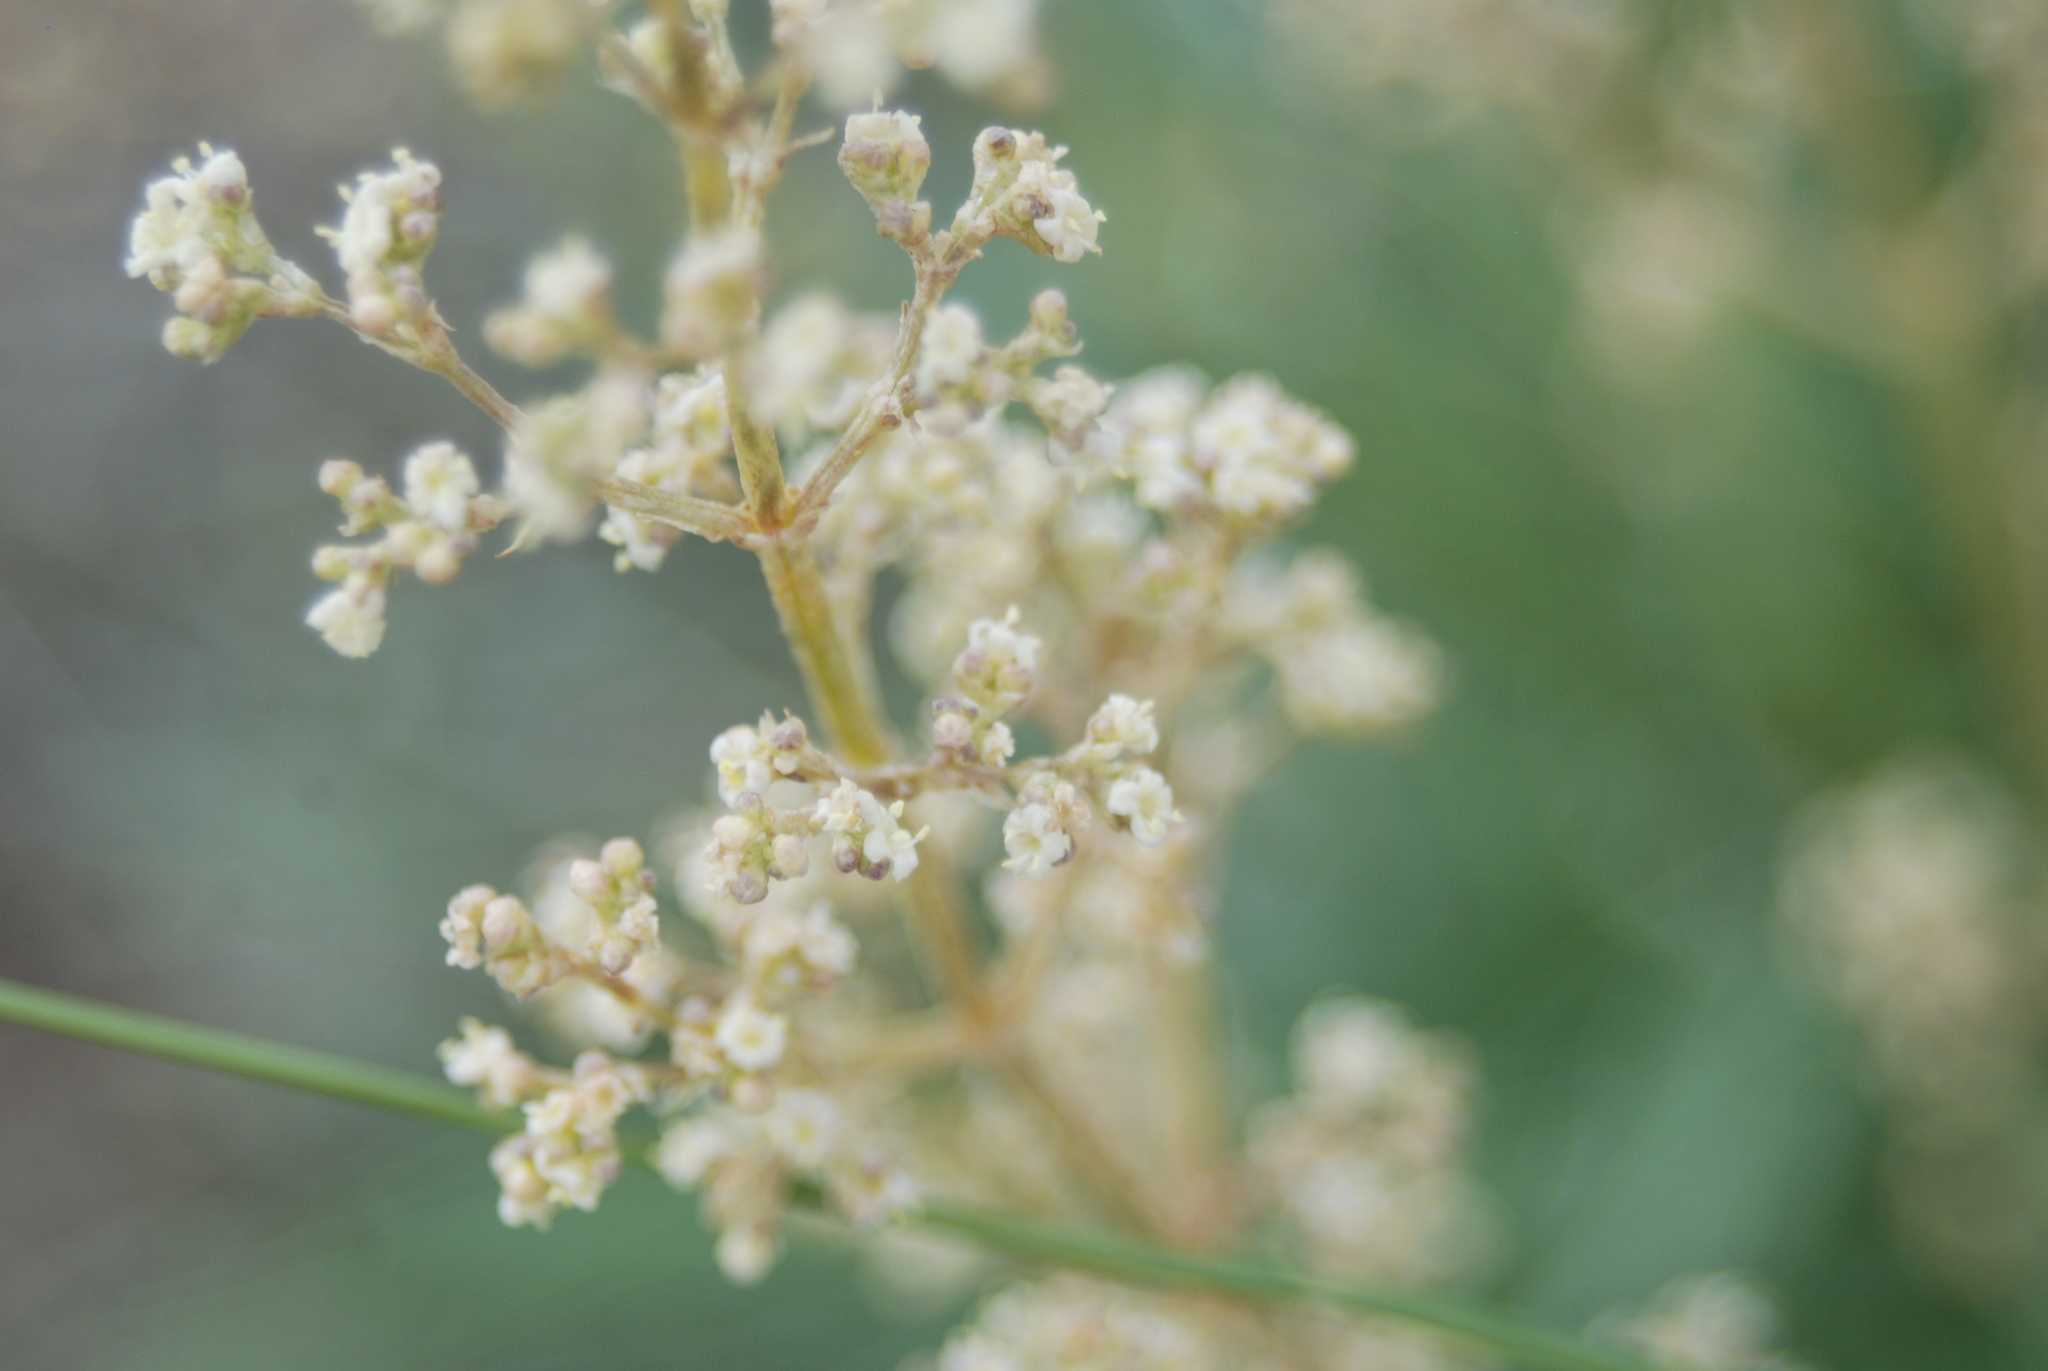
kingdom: Plantae
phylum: Tracheophyta
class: Magnoliopsida
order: Dipsacales
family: Caprifoliaceae
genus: Valeriana
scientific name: Valeriana edulis
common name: Taproot valerian
